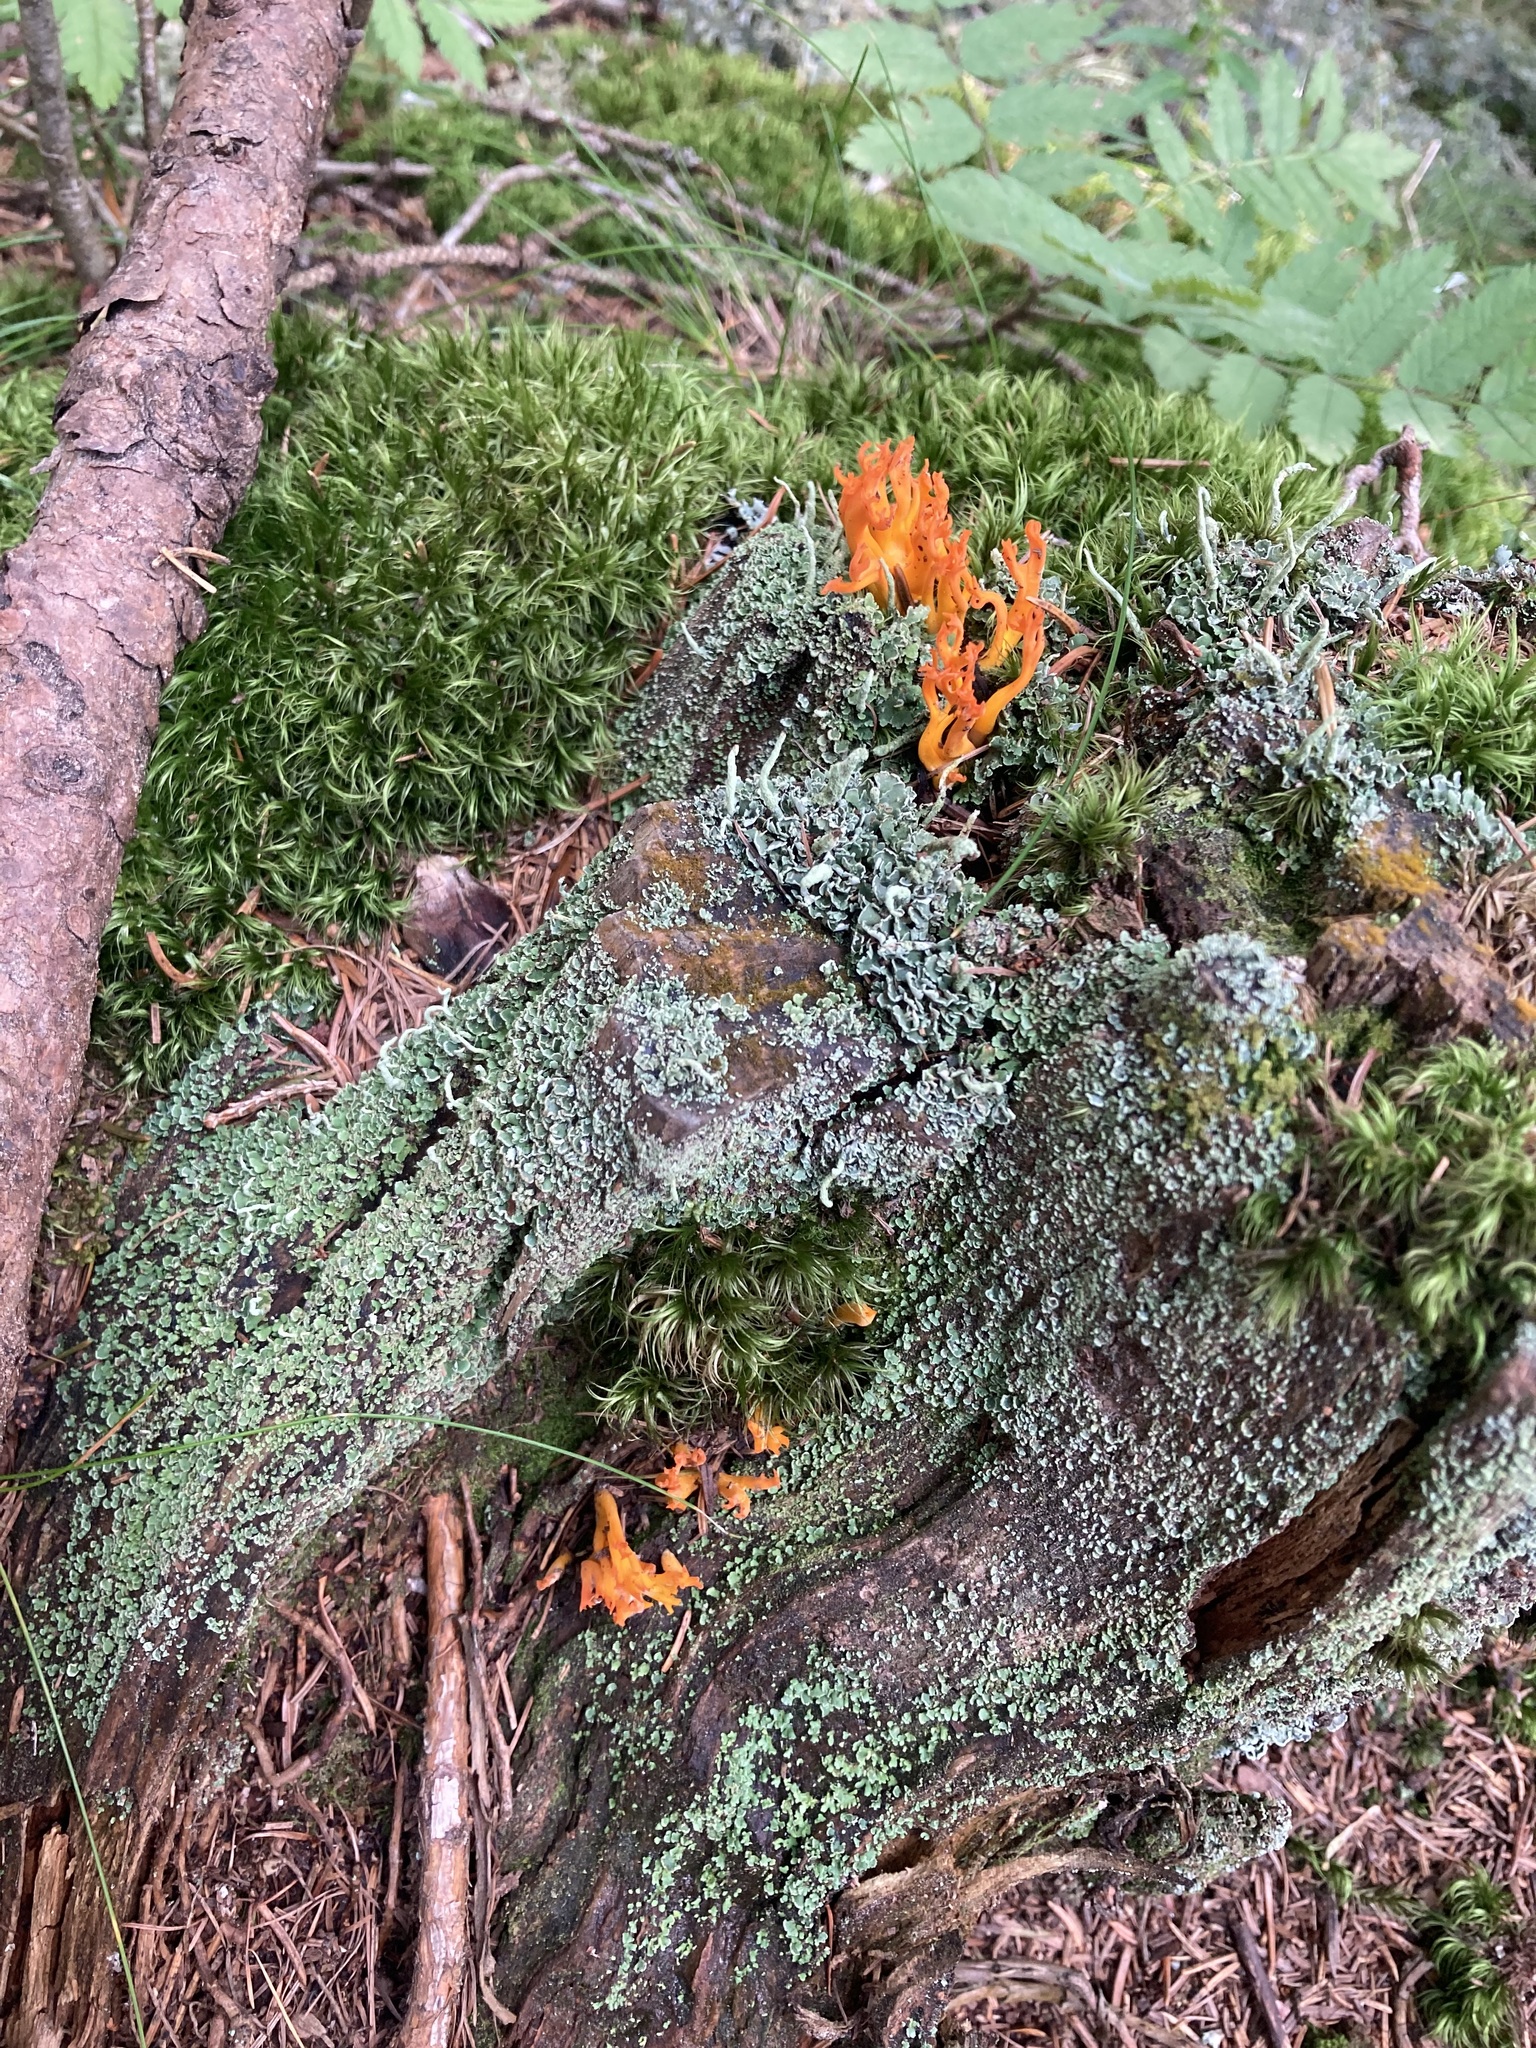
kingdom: Fungi
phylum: Basidiomycota
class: Dacrymycetes
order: Dacrymycetales
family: Dacrymycetaceae
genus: Calocera
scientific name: Calocera viscosa
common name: Yellow stagshorn
